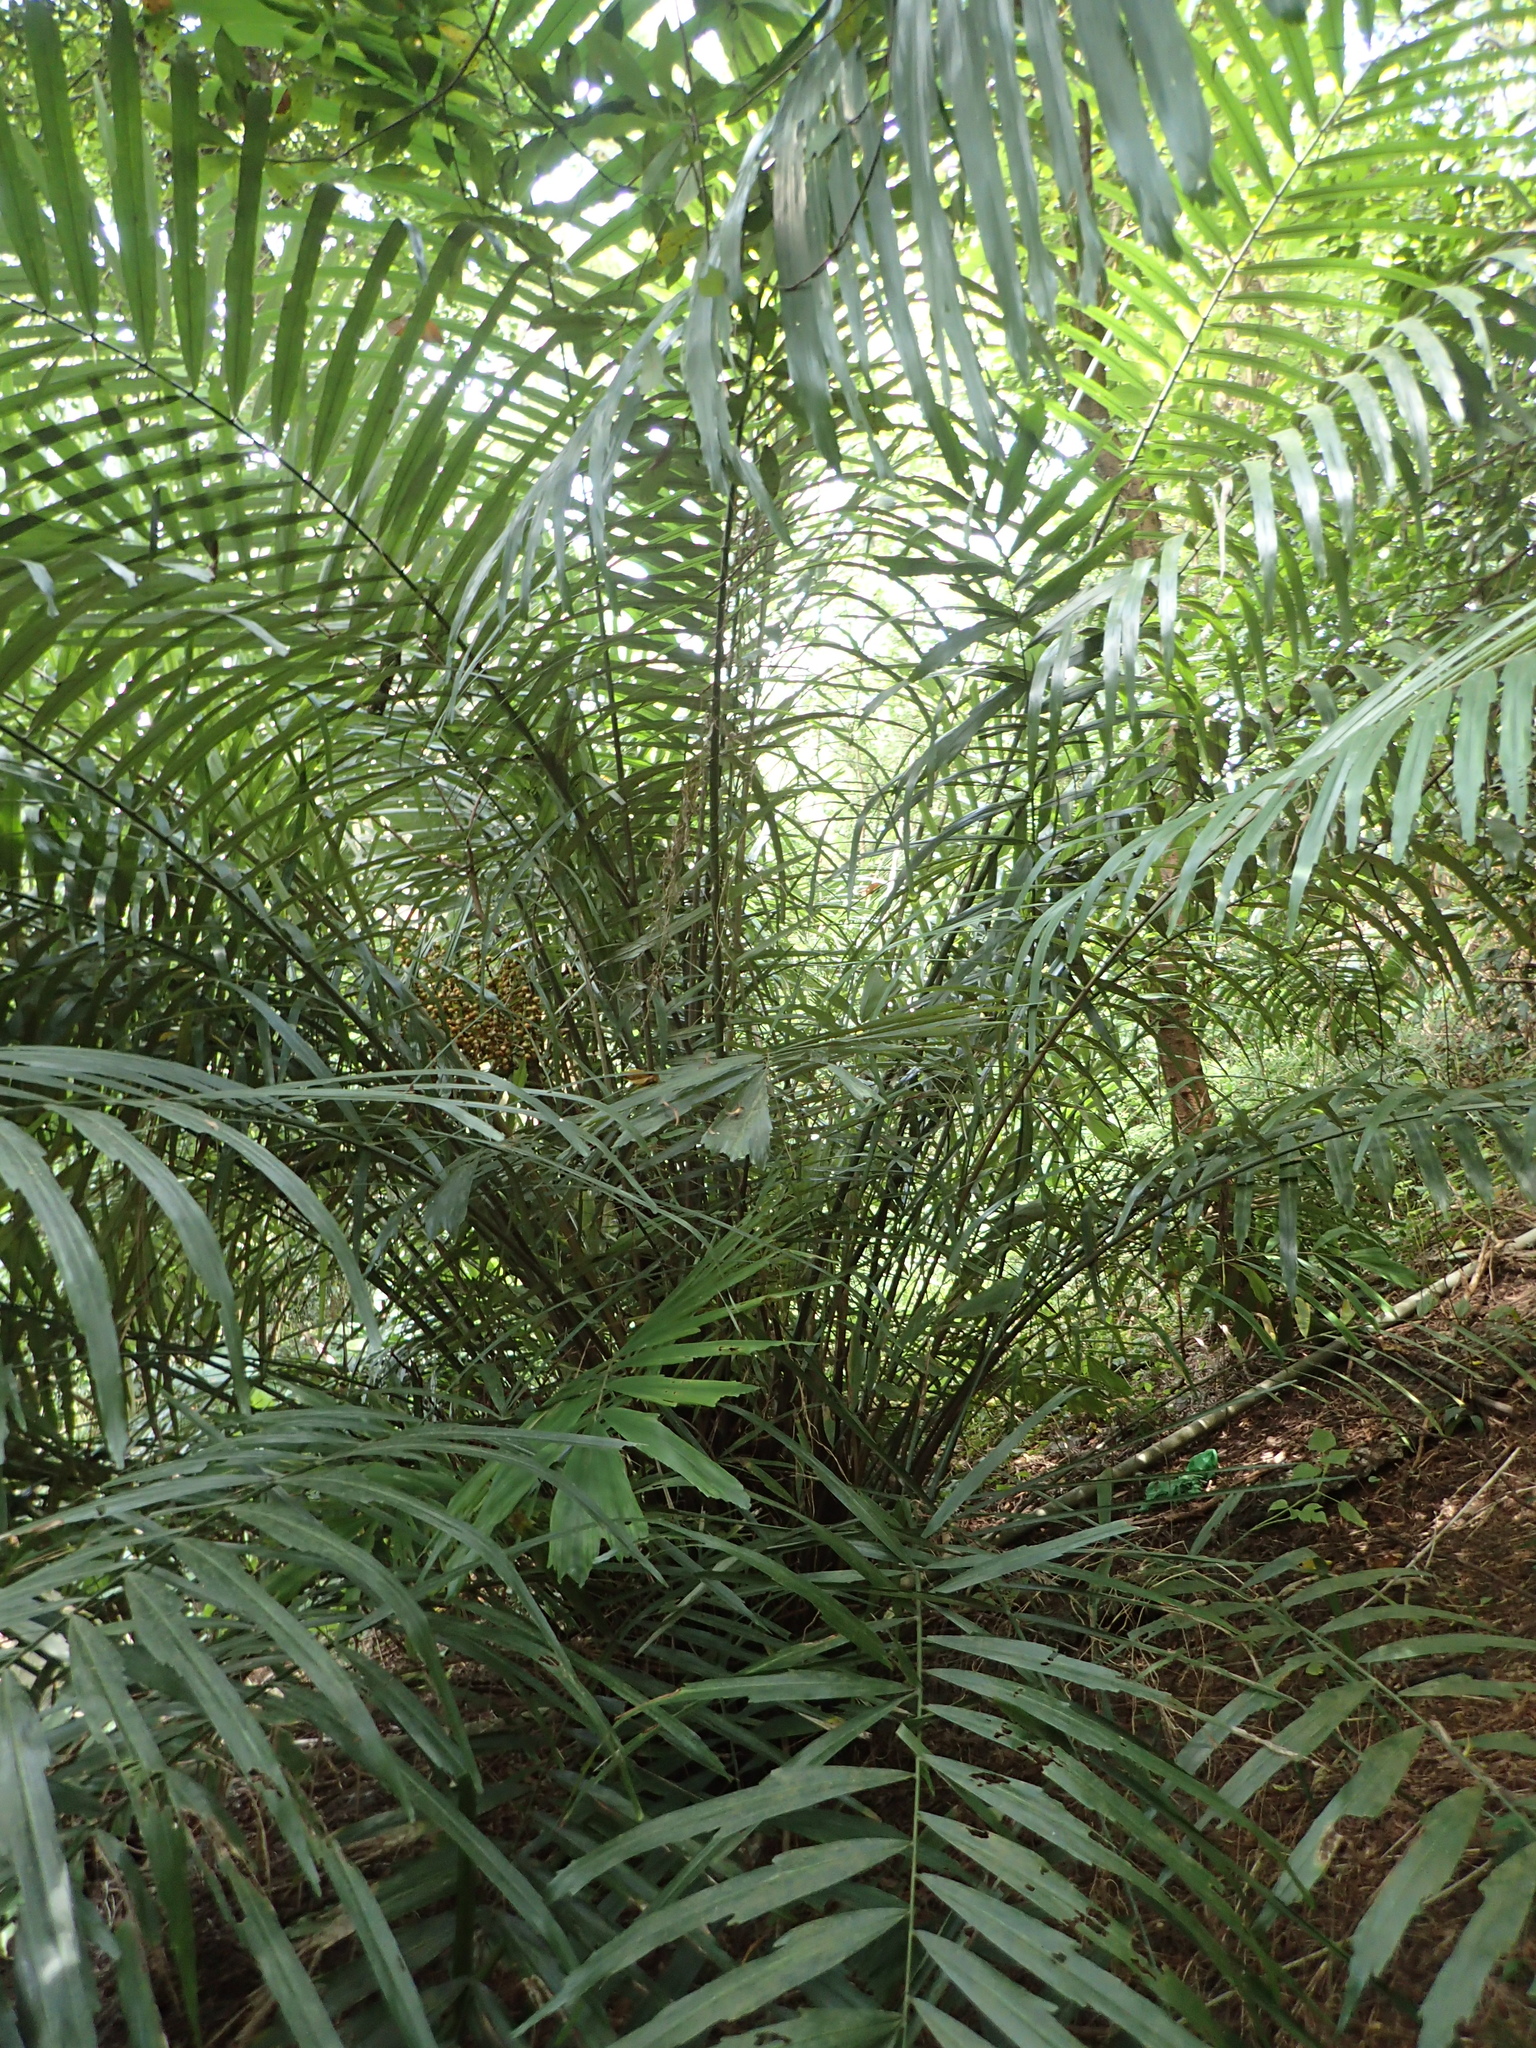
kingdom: Plantae
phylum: Tracheophyta
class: Liliopsida
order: Arecales
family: Arecaceae
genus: Arenga
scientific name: Arenga engleri
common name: Formosan sugar palm
